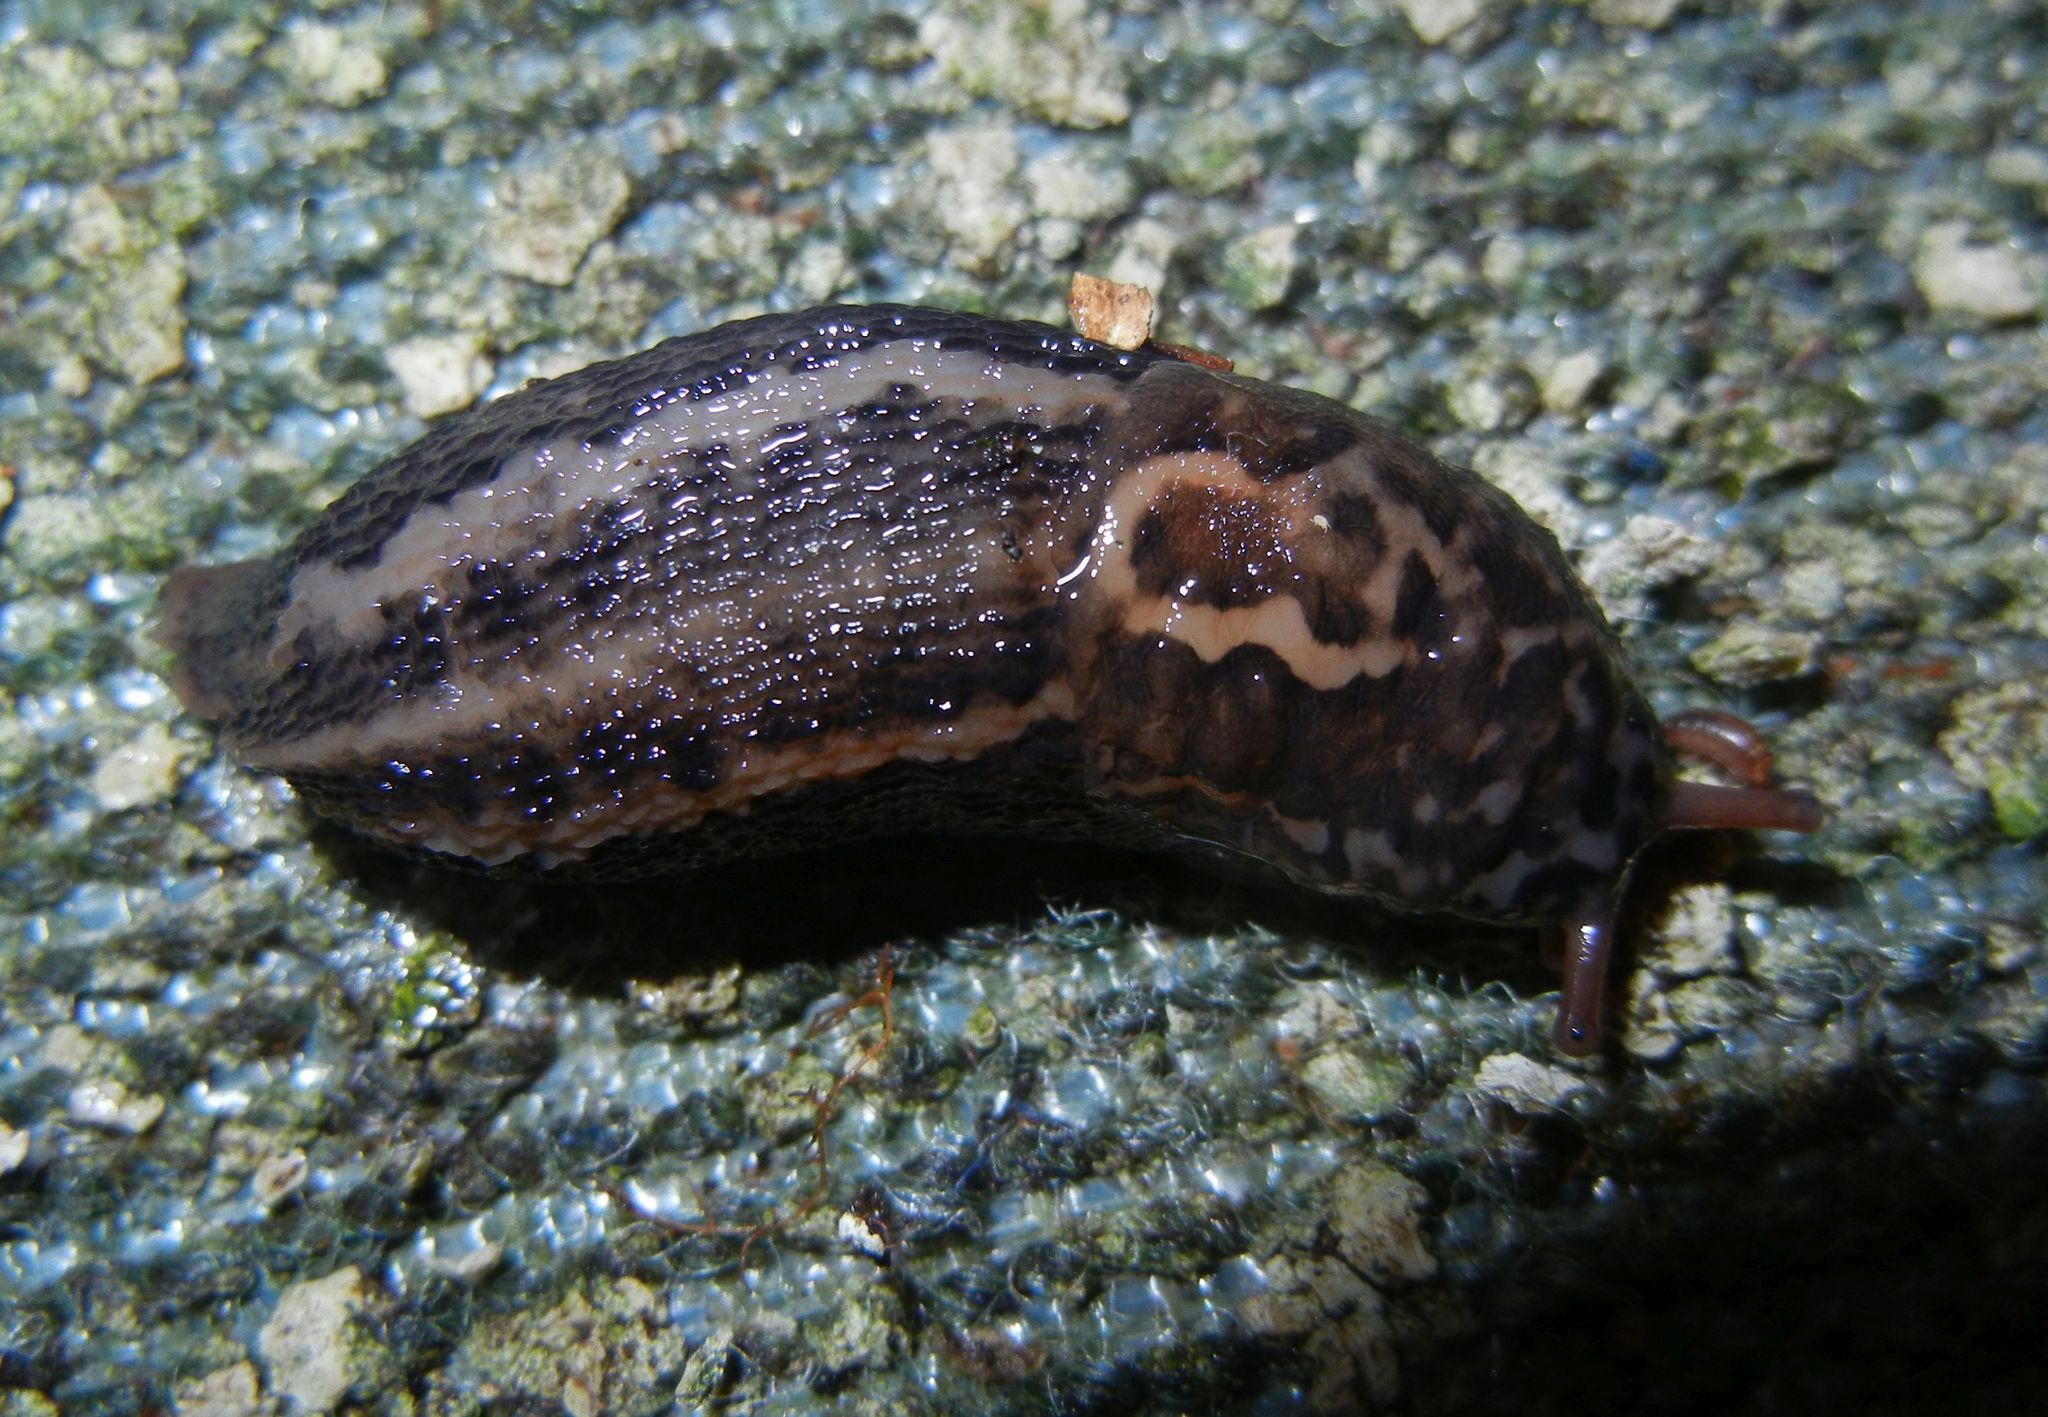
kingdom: Animalia
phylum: Mollusca
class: Gastropoda
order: Stylommatophora
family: Limacidae
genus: Limax
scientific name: Limax maximus
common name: Great grey slug
